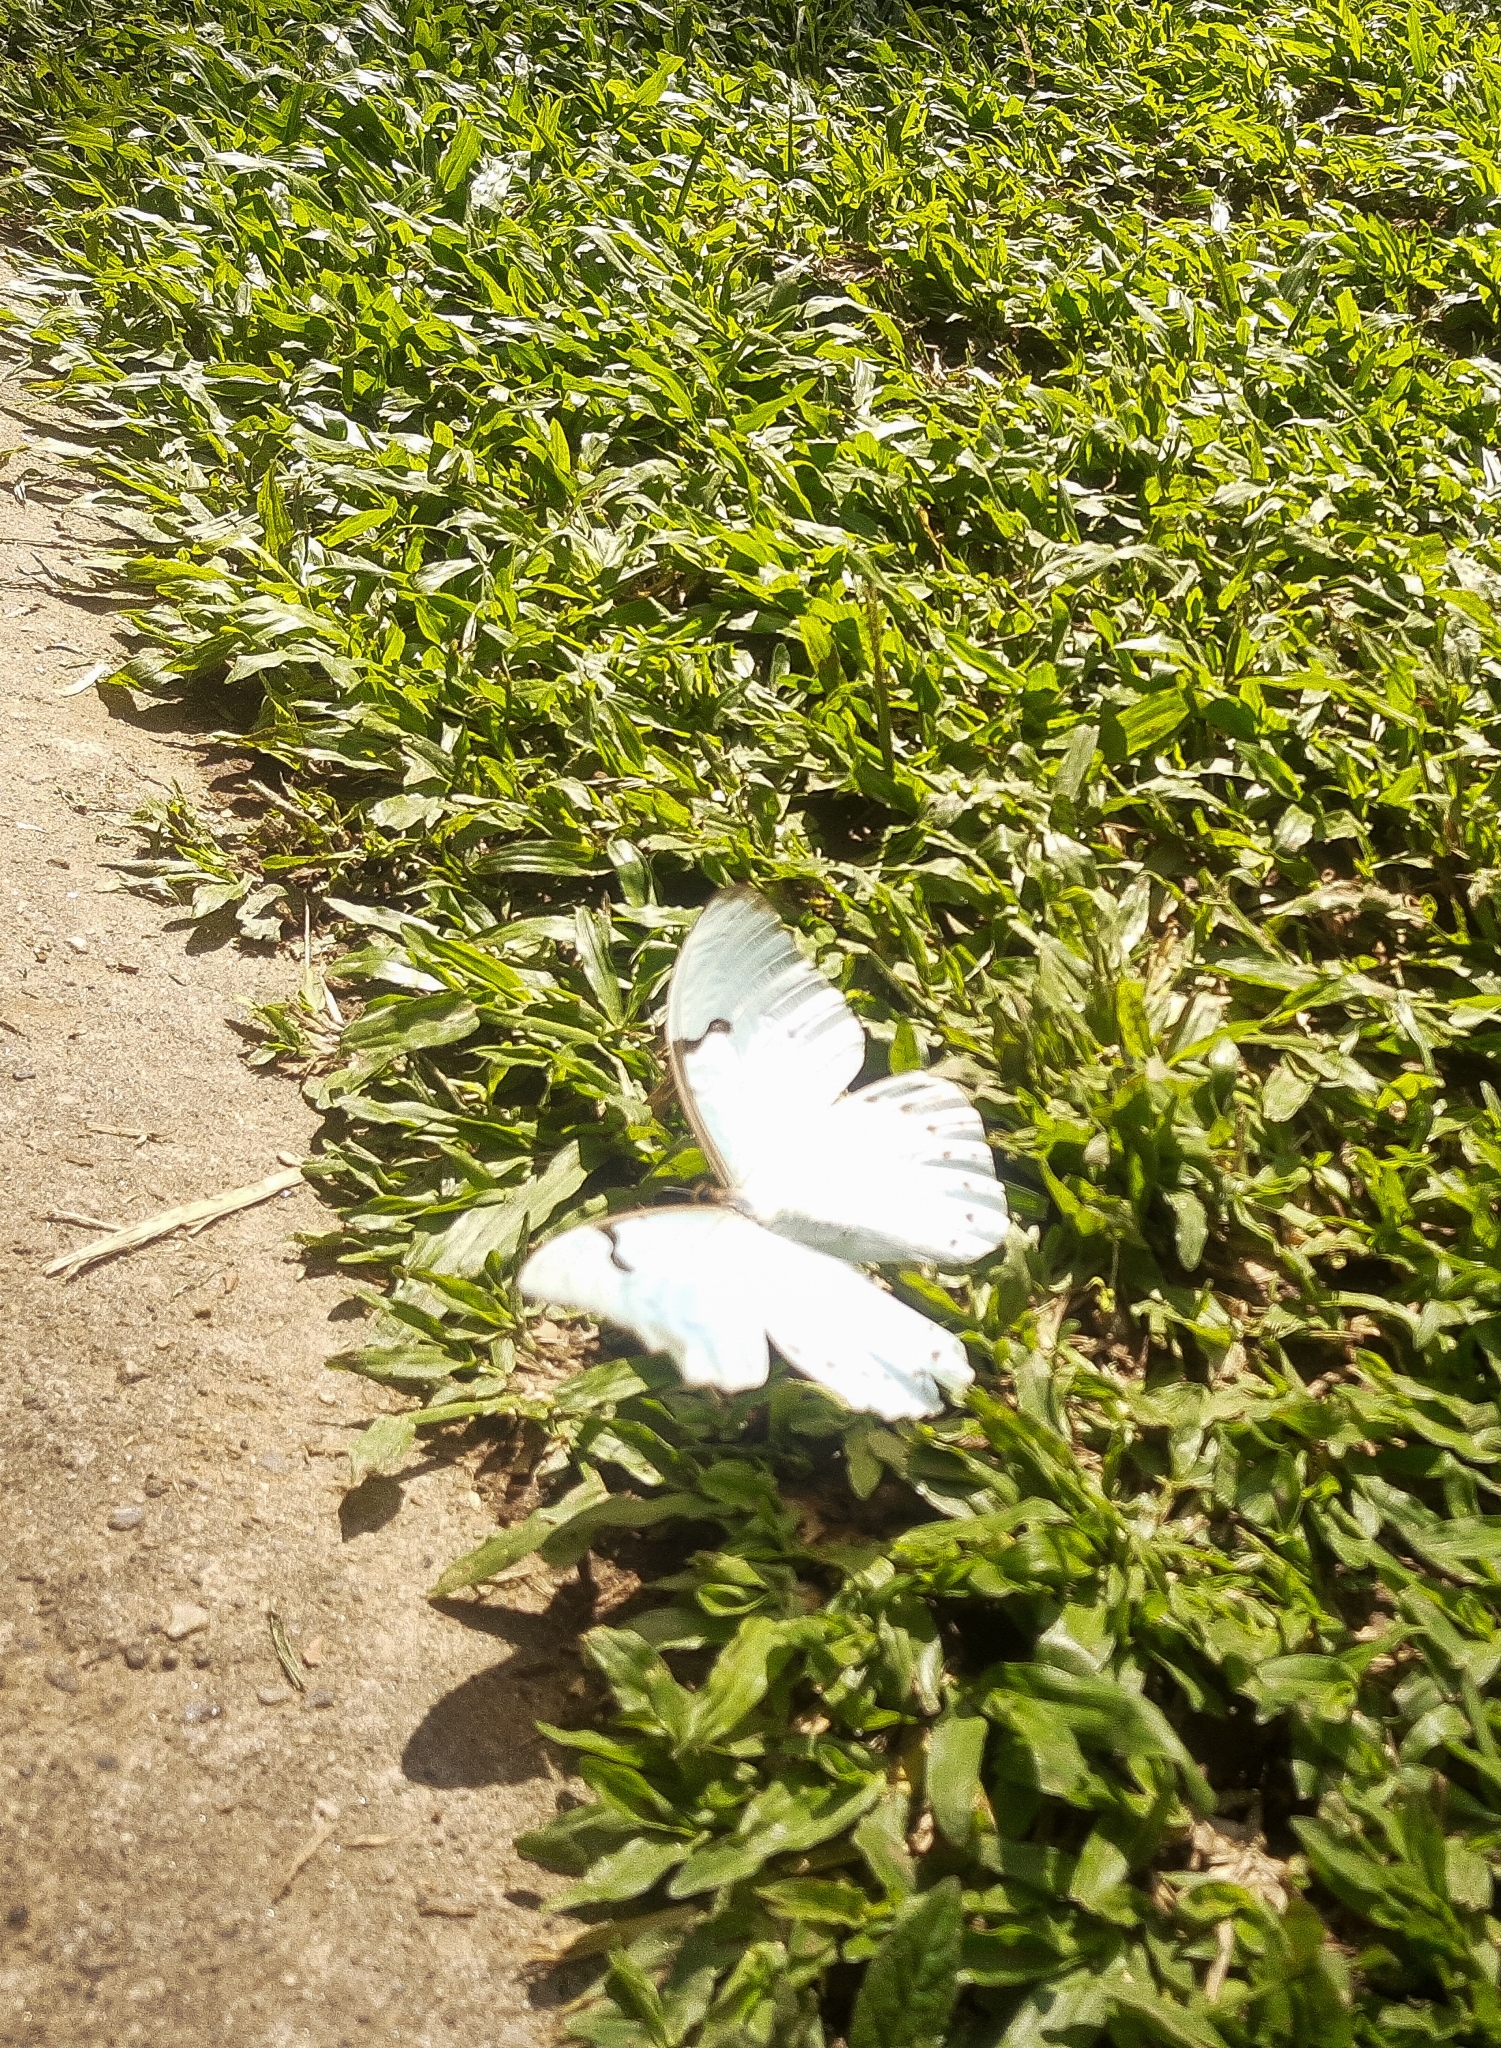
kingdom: Animalia
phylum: Arthropoda
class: Insecta
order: Lepidoptera
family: Nymphalidae
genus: Morpho
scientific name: Morpho epistrophus
